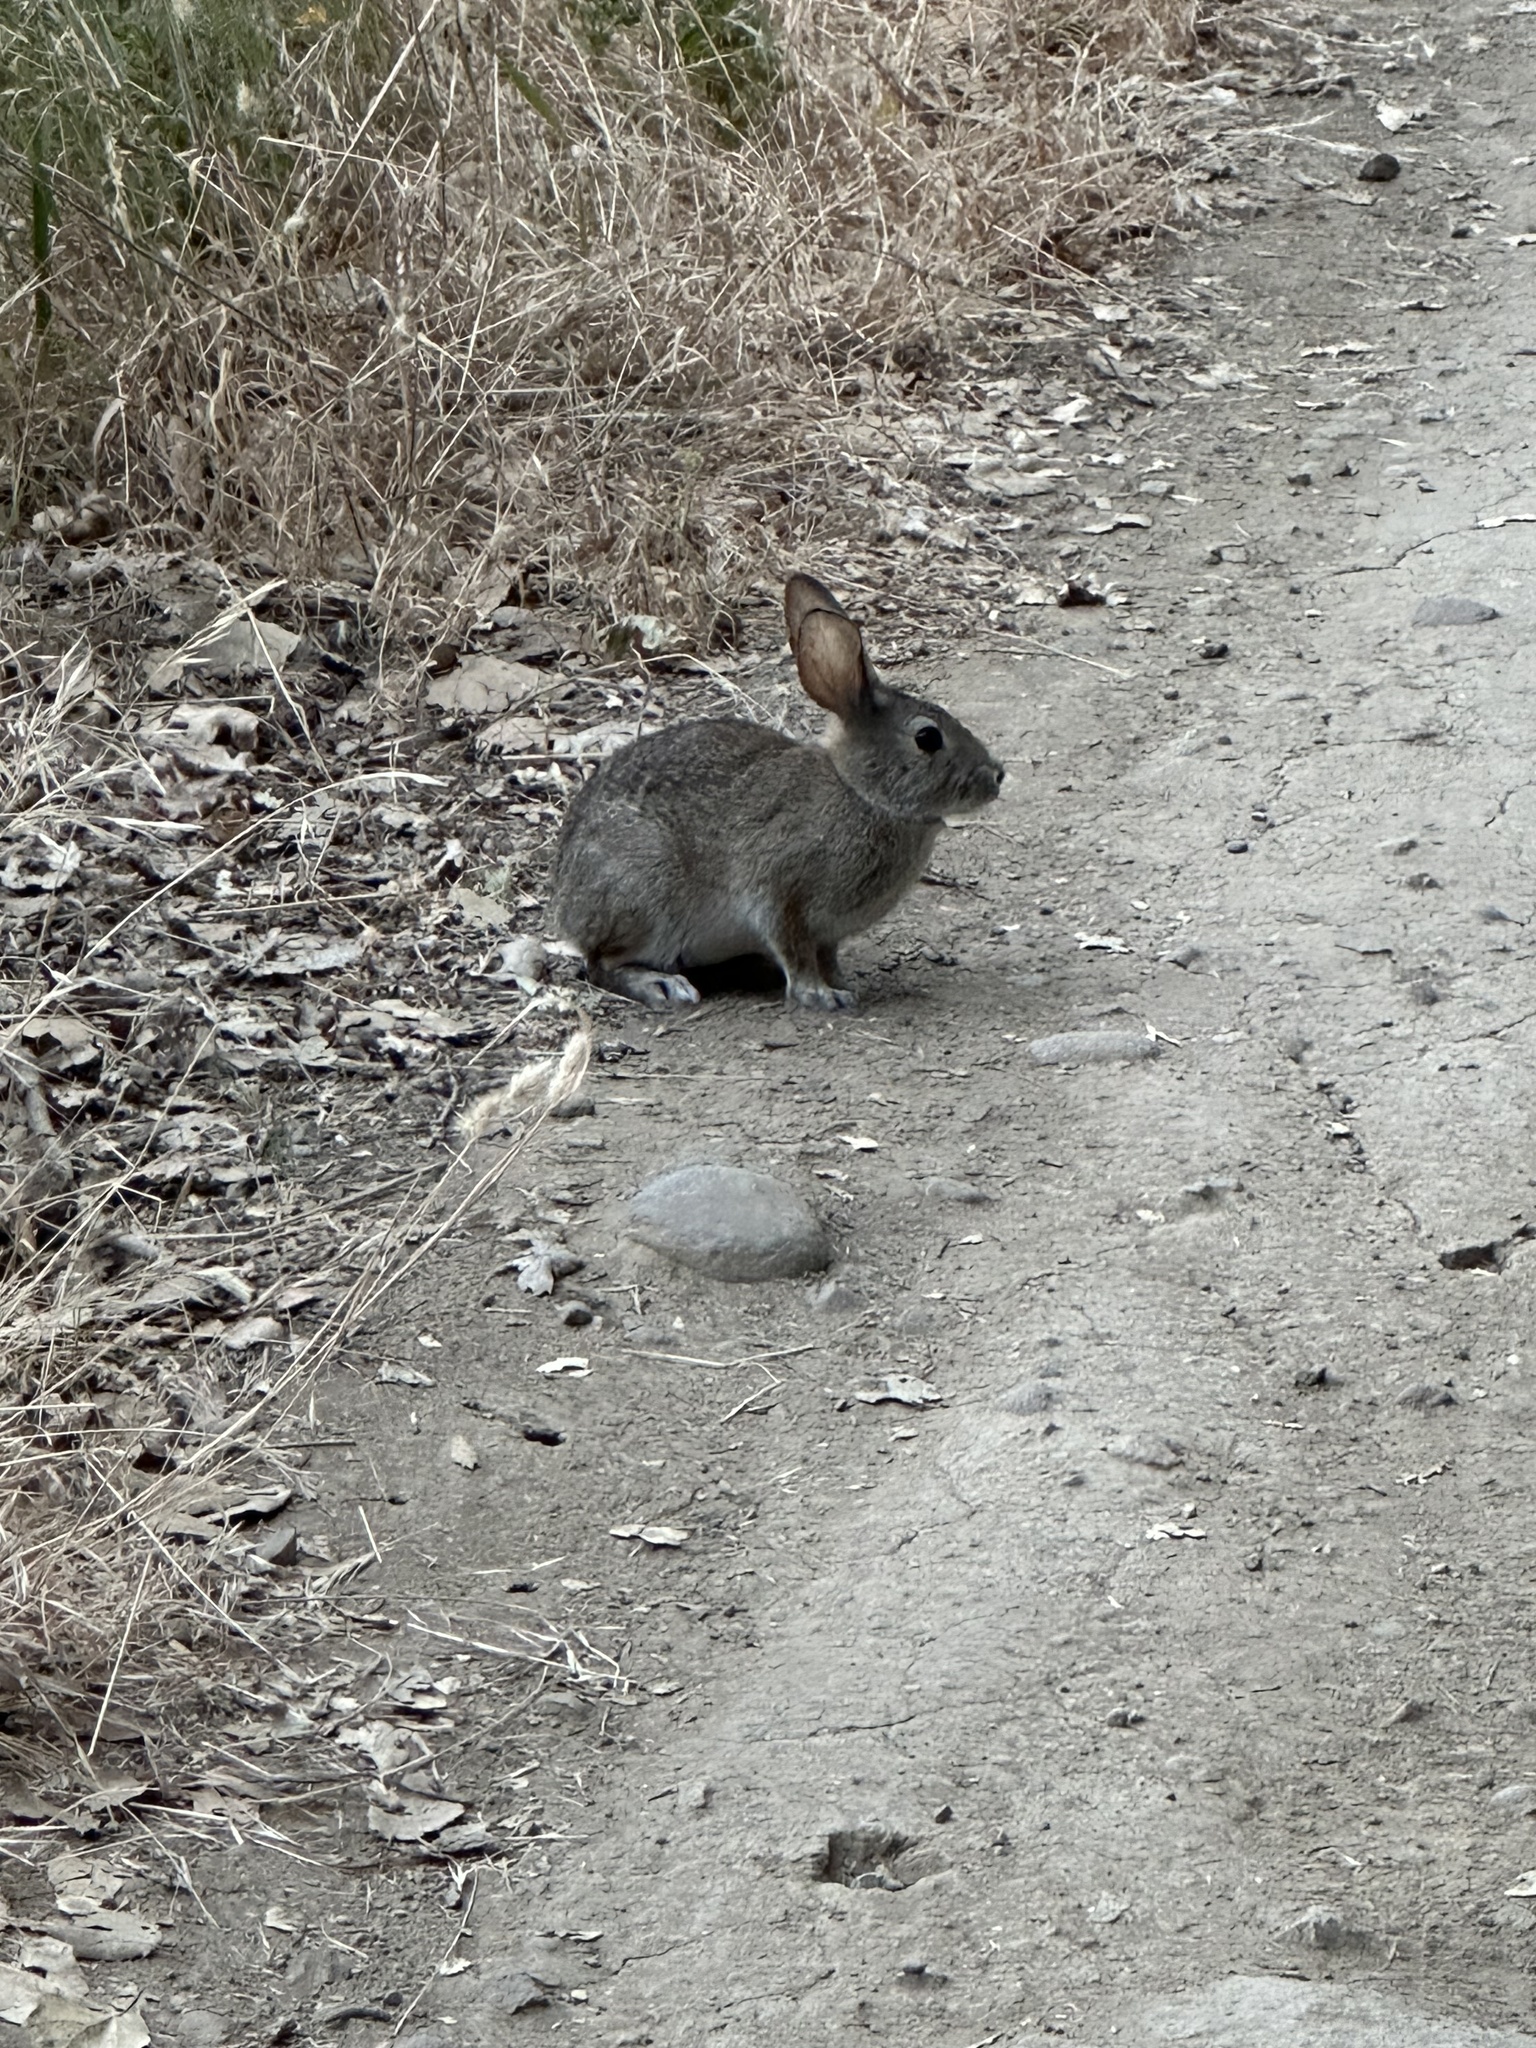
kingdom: Animalia
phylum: Chordata
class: Mammalia
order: Lagomorpha
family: Leporidae
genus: Sylvilagus
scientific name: Sylvilagus bachmani
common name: Brush rabbit
